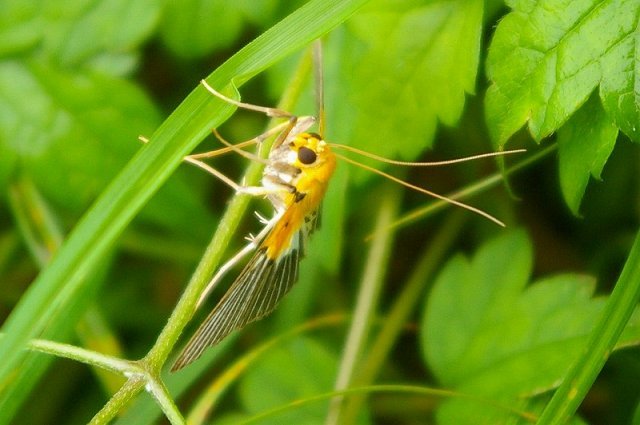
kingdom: Animalia
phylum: Arthropoda
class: Insecta
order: Lepidoptera
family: Crambidae
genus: Nevrina
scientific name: Nevrina procopia
